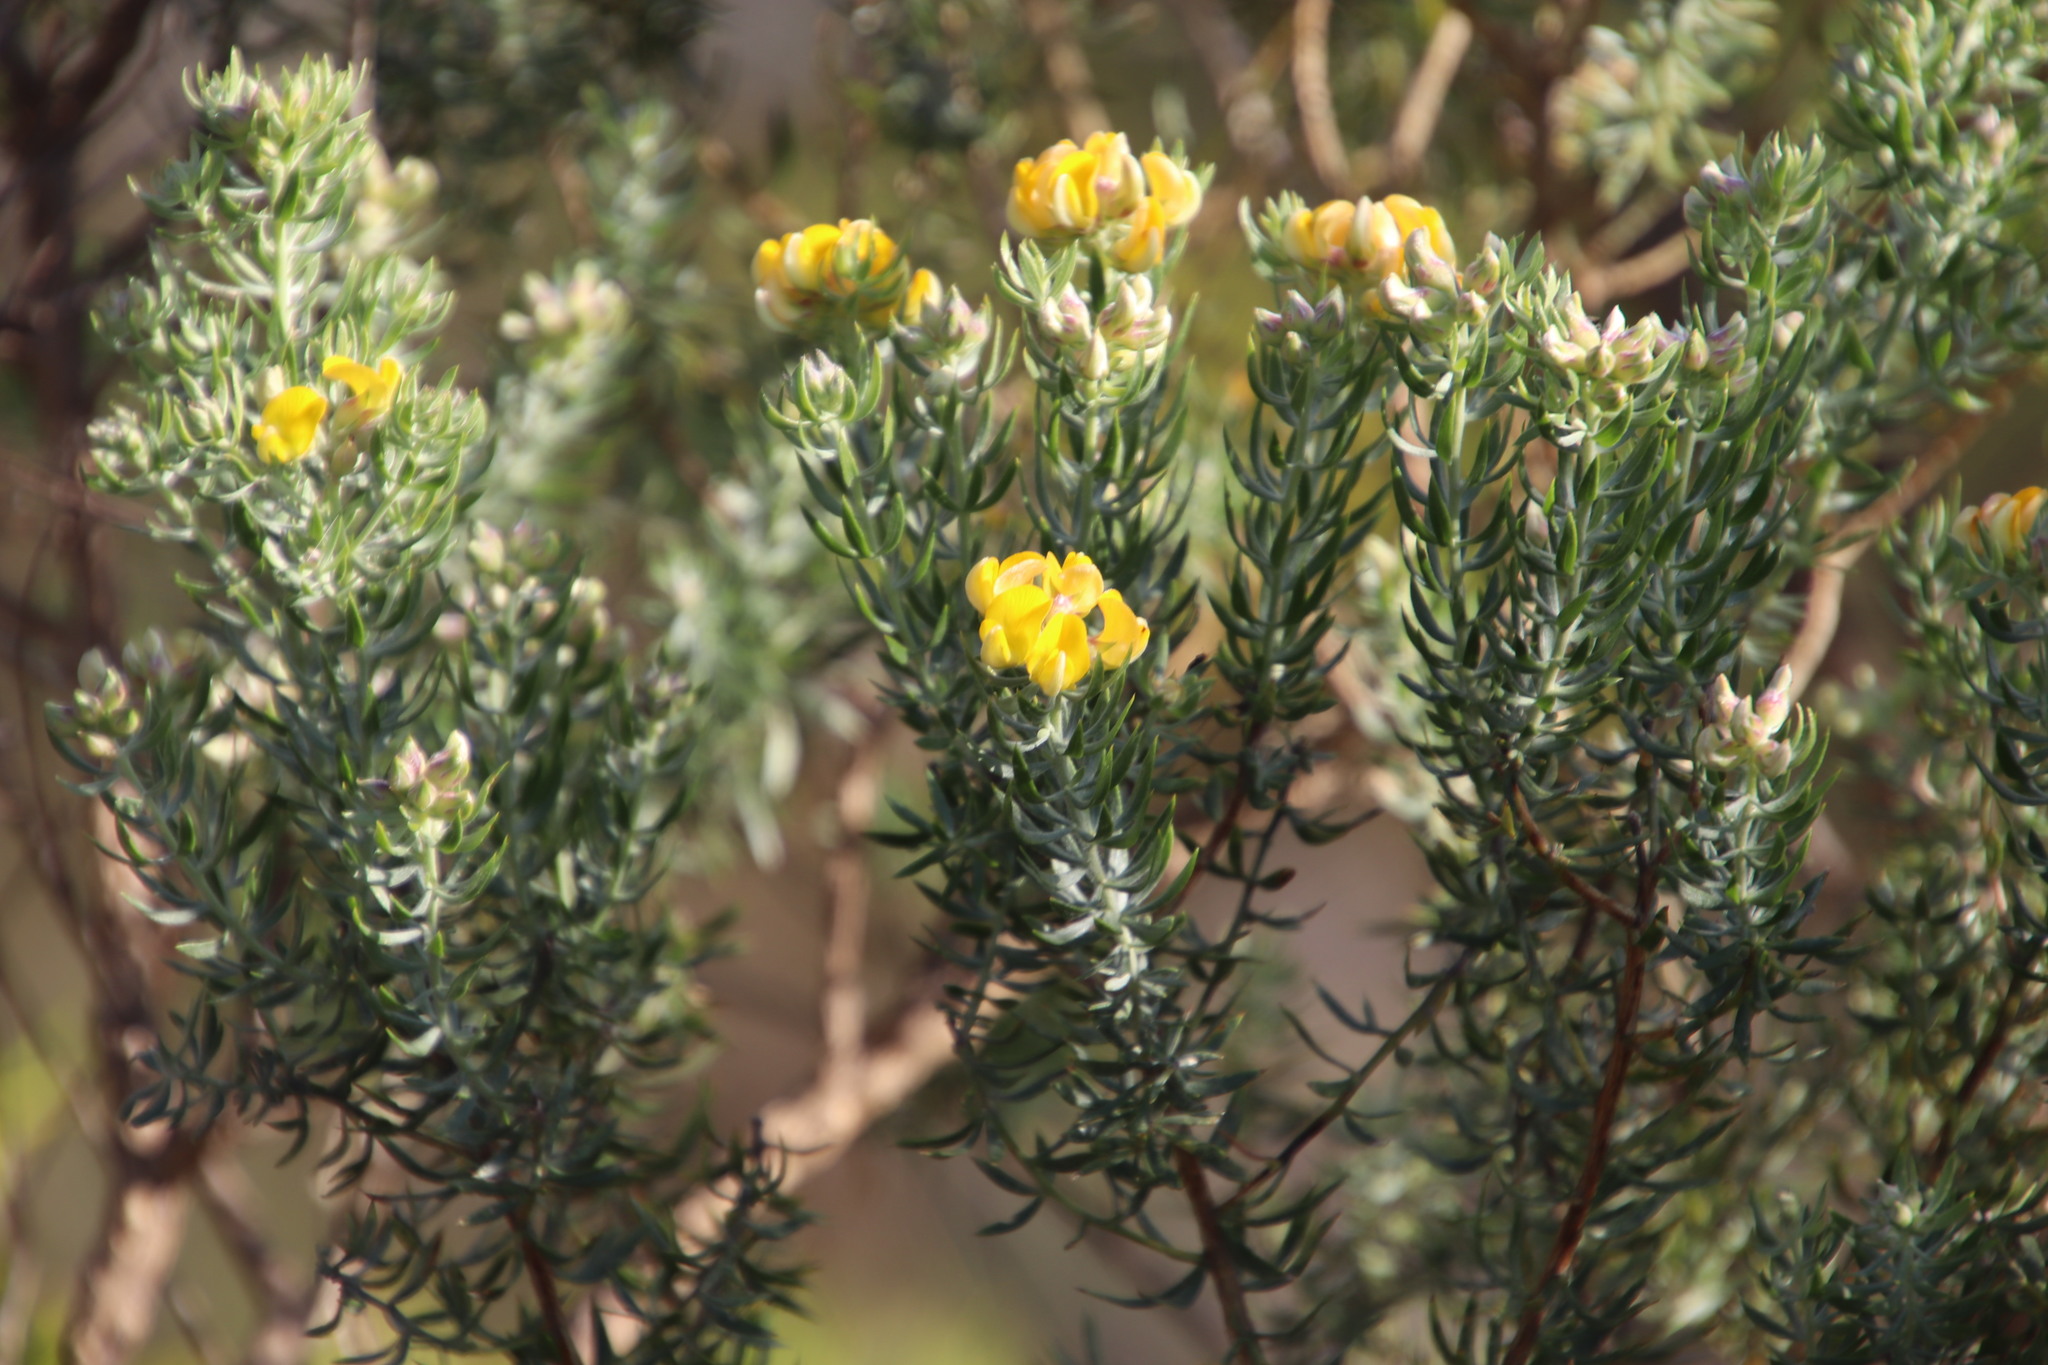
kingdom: Plantae
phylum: Tracheophyta
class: Magnoliopsida
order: Fabales
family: Fabaceae
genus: Aspalathus
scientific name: Aspalathus rugosa
